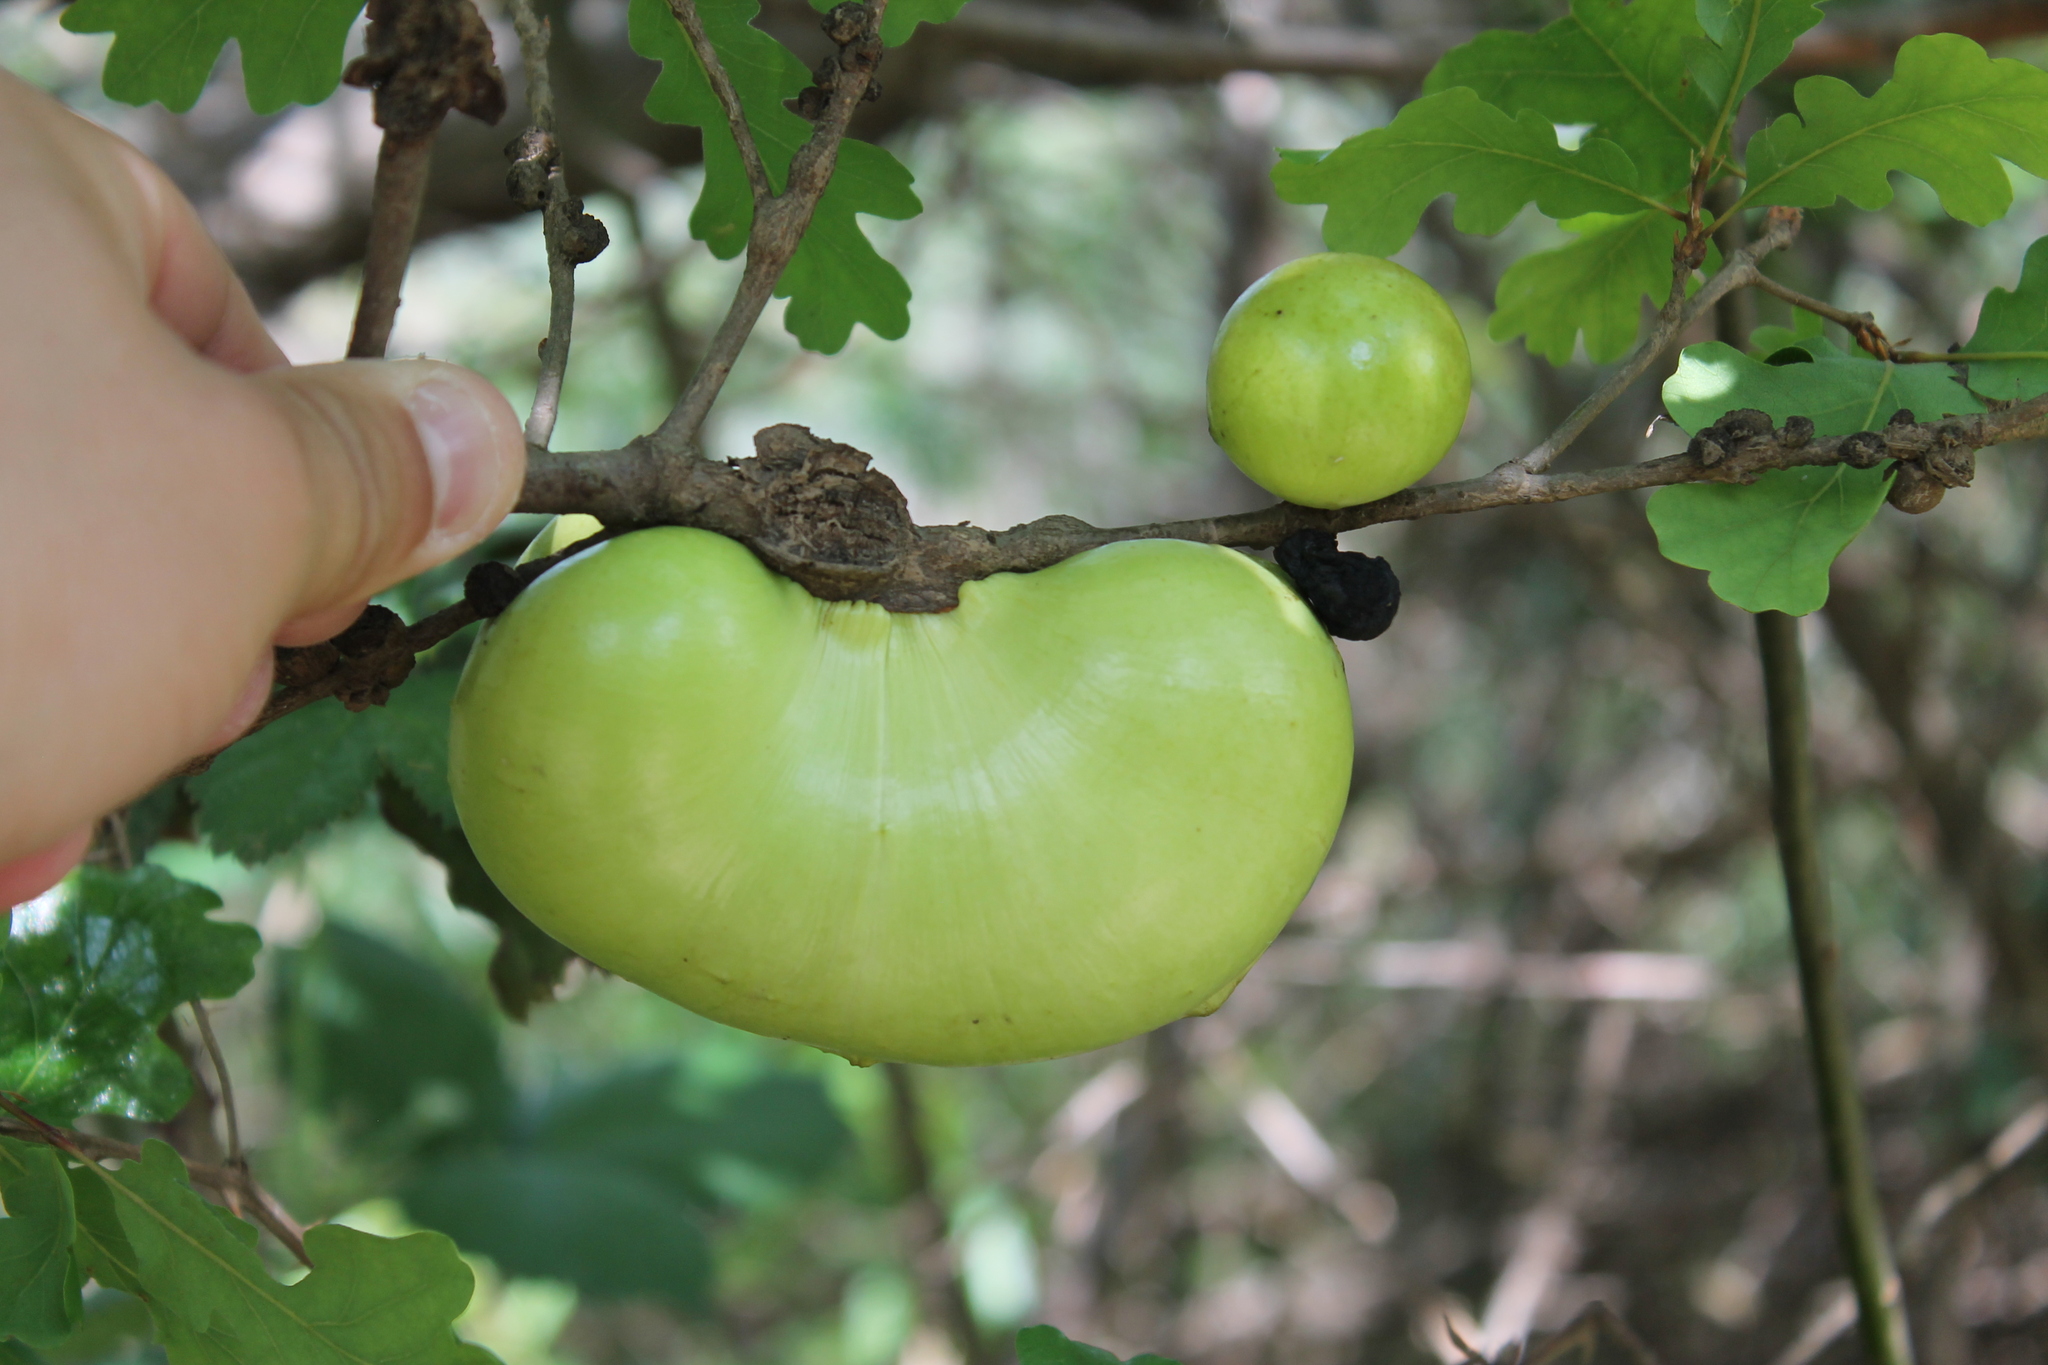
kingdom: Animalia
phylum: Arthropoda
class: Insecta
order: Hymenoptera
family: Cynipidae
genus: Andricus
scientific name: Andricus quercuscalifornicus
